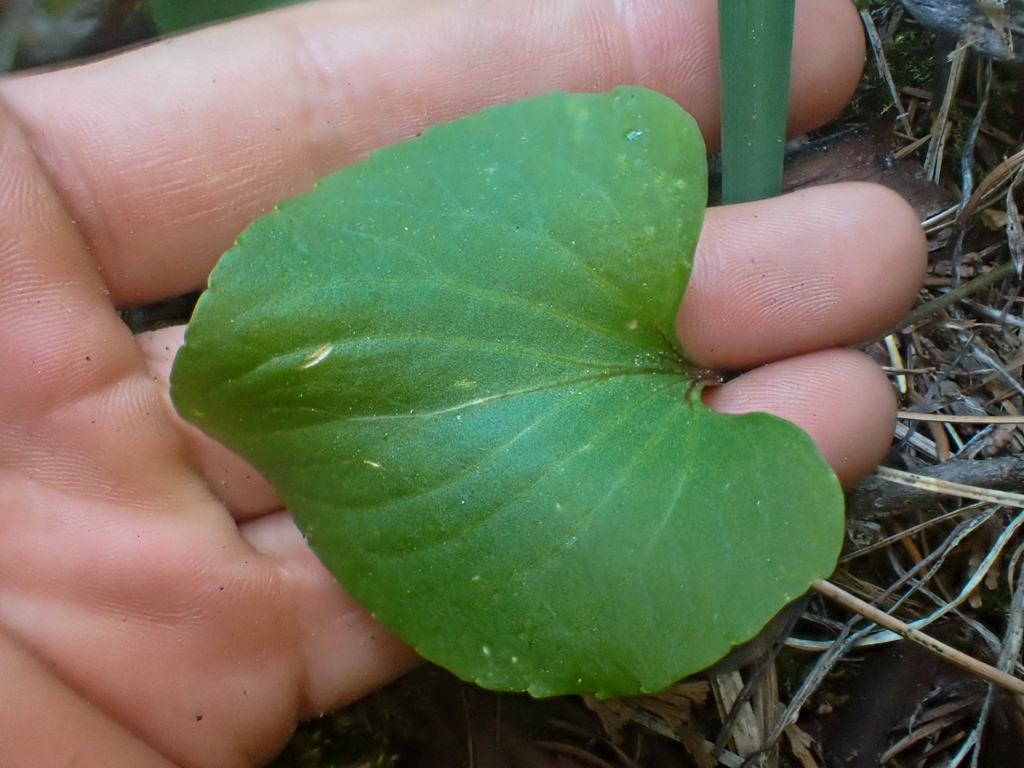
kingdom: Plantae
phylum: Tracheophyta
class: Magnoliopsida
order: Malpighiales
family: Violaceae
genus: Viola
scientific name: Viola macloskeyi
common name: Macloskey's violet
